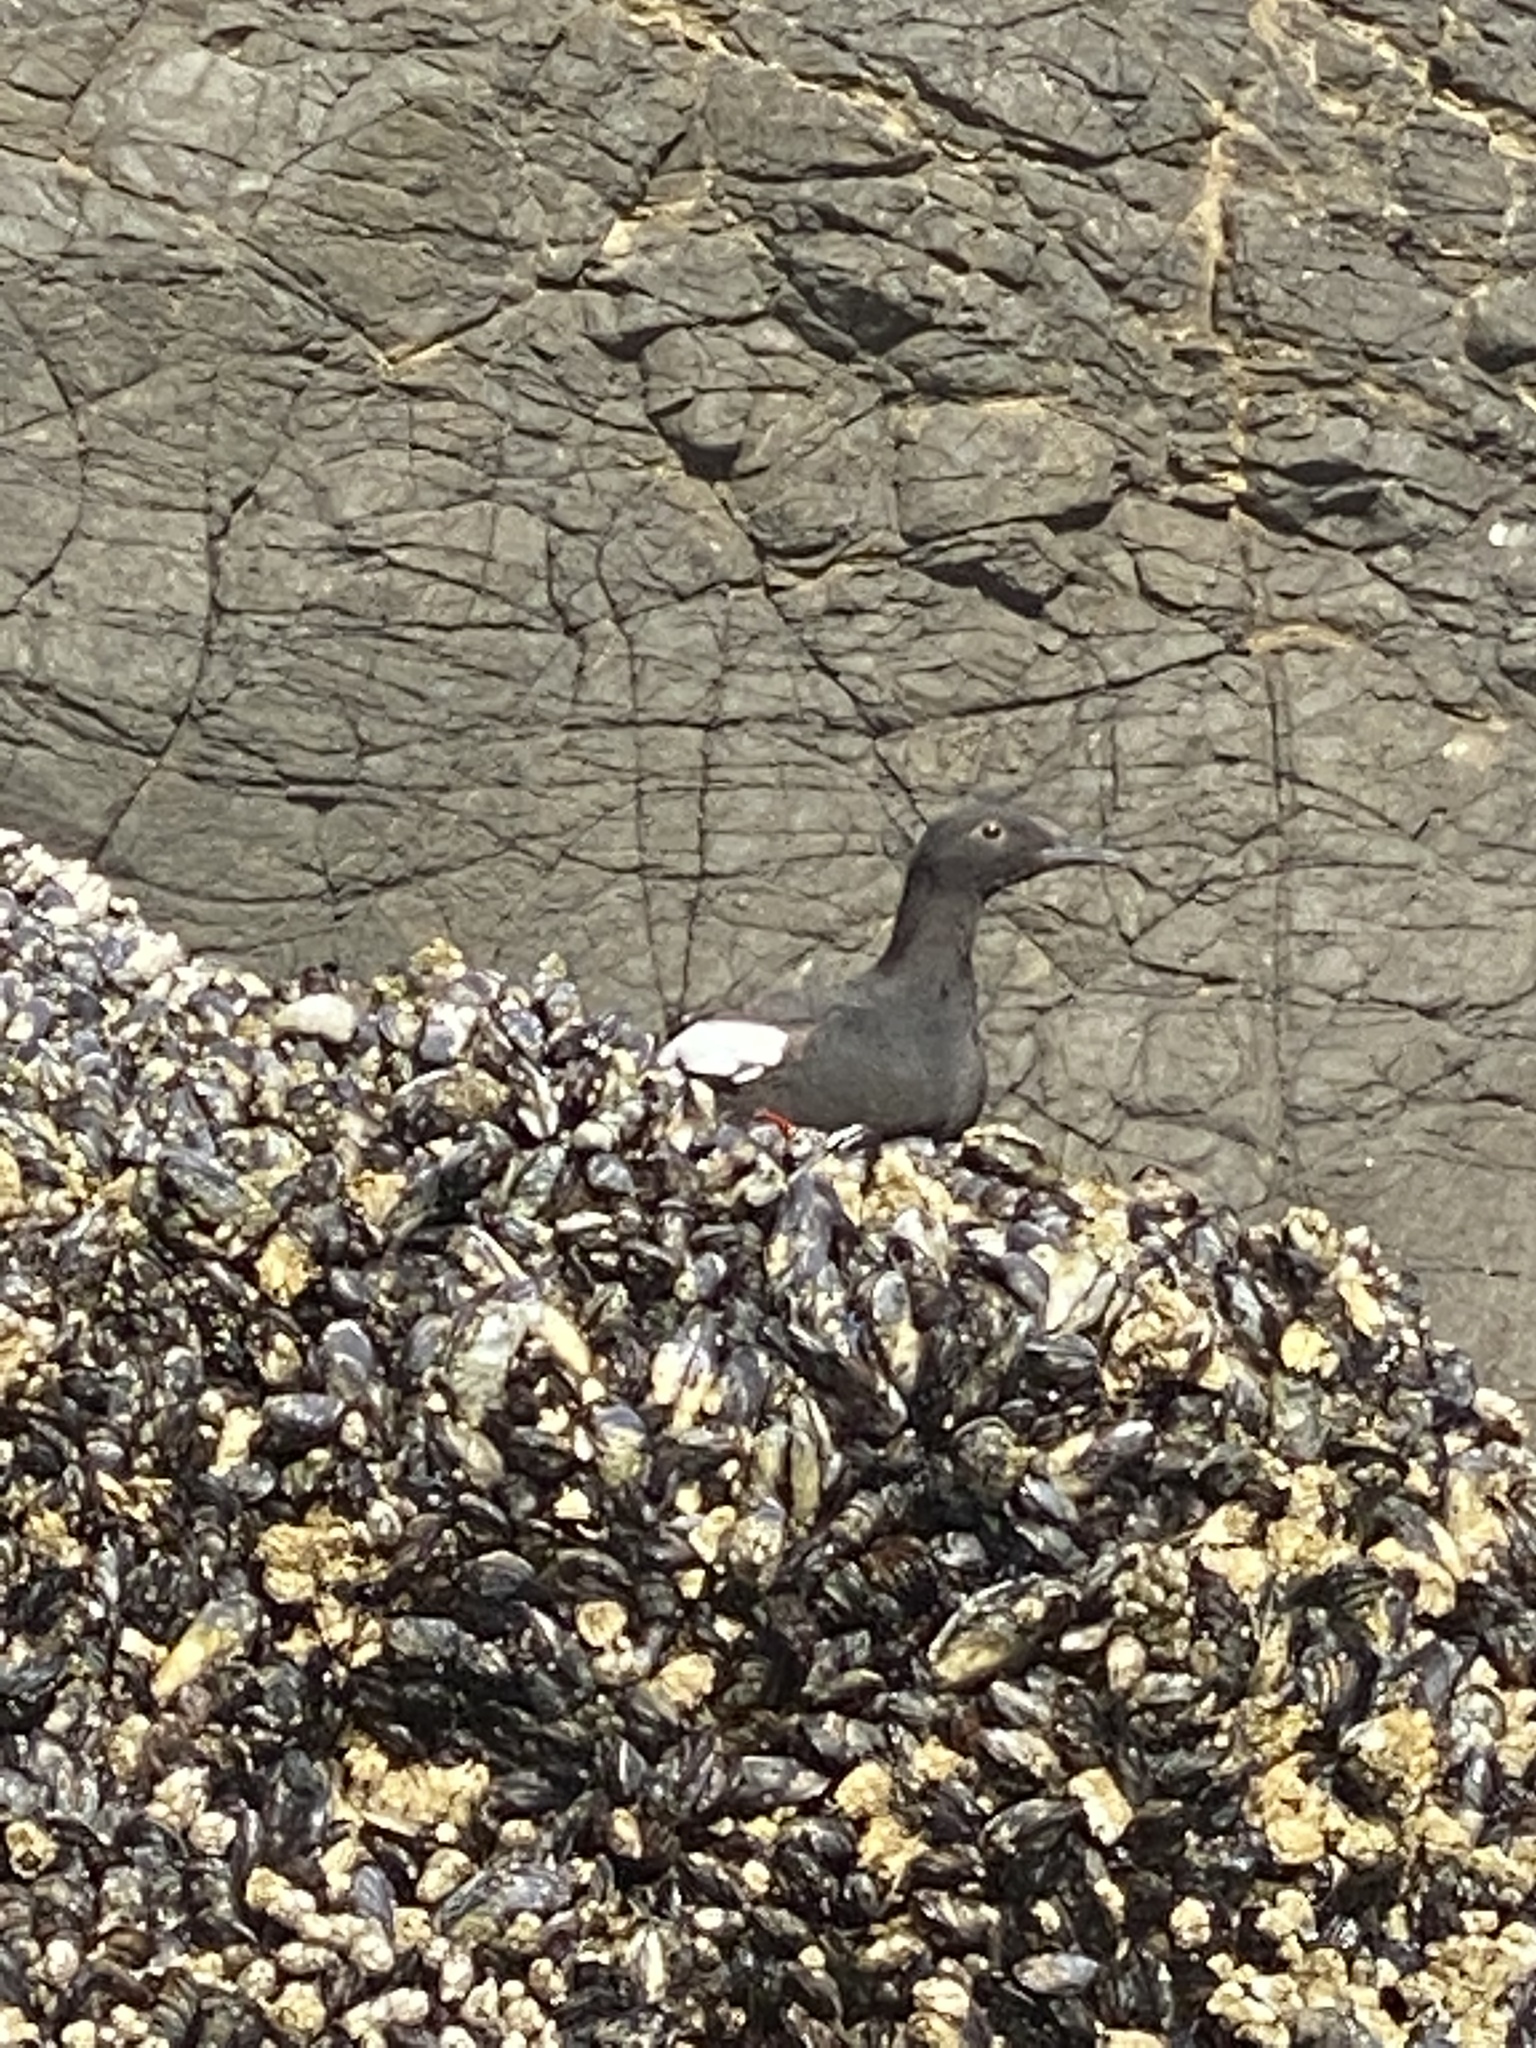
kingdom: Animalia
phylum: Chordata
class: Aves
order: Charadriiformes
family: Alcidae
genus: Cepphus
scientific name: Cepphus columba
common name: Pigeon guillemot
